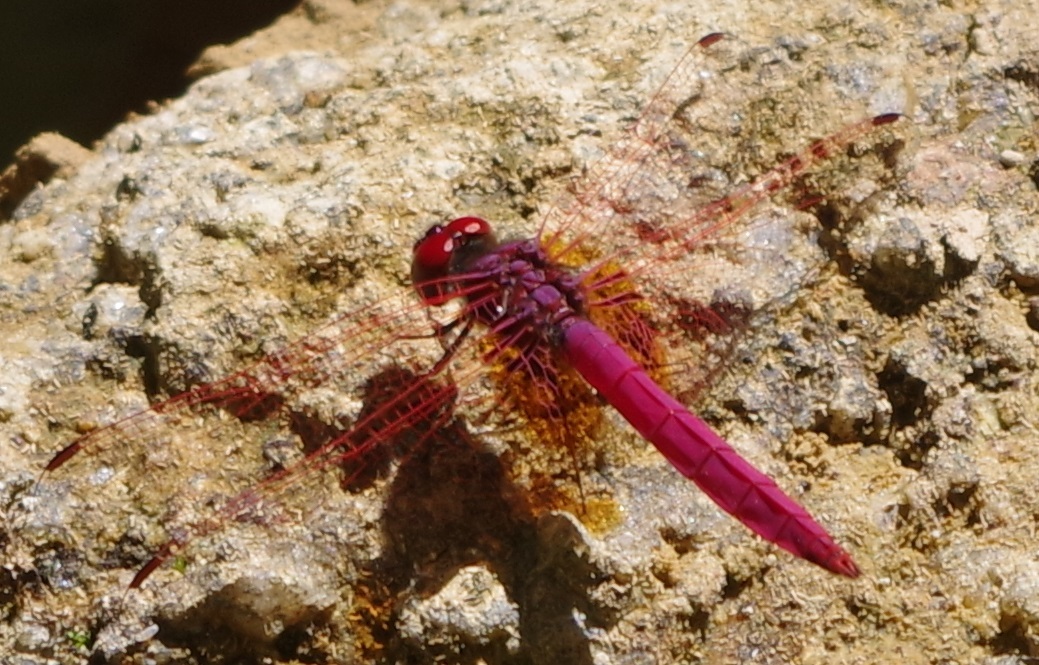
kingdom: Animalia
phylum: Arthropoda
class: Insecta
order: Odonata
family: Libellulidae
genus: Trithemis
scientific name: Trithemis aurora
